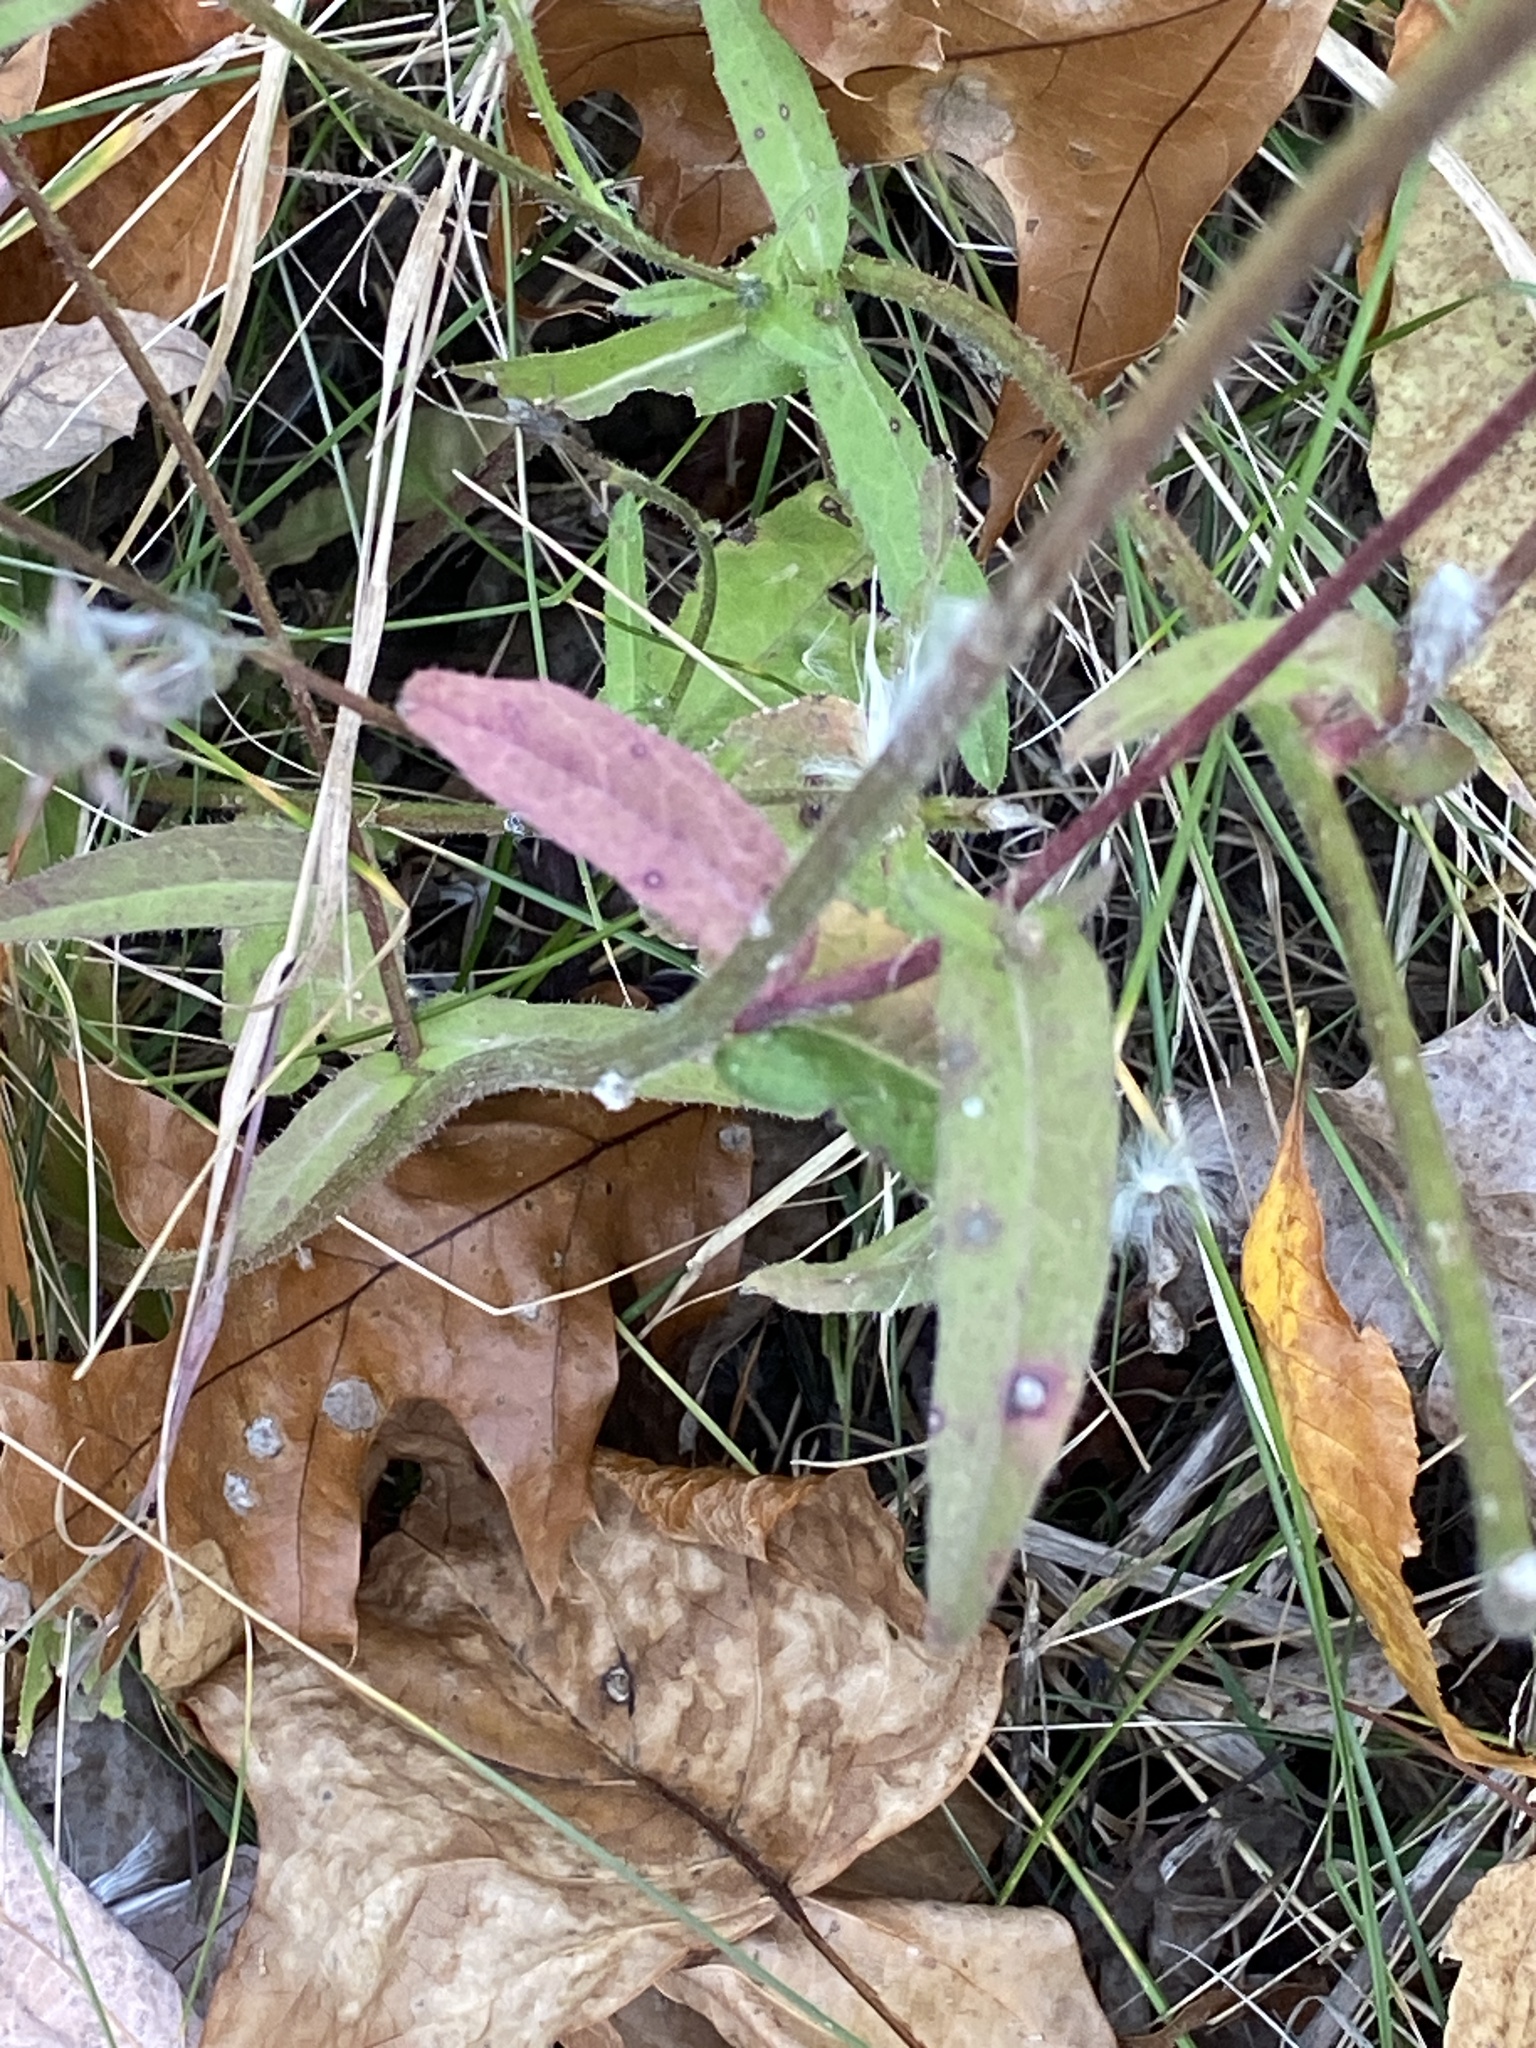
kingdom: Plantae
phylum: Tracheophyta
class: Magnoliopsida
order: Asterales
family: Asteraceae
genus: Picris
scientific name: Picris hieracioides
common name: Hawkweed oxtongue
